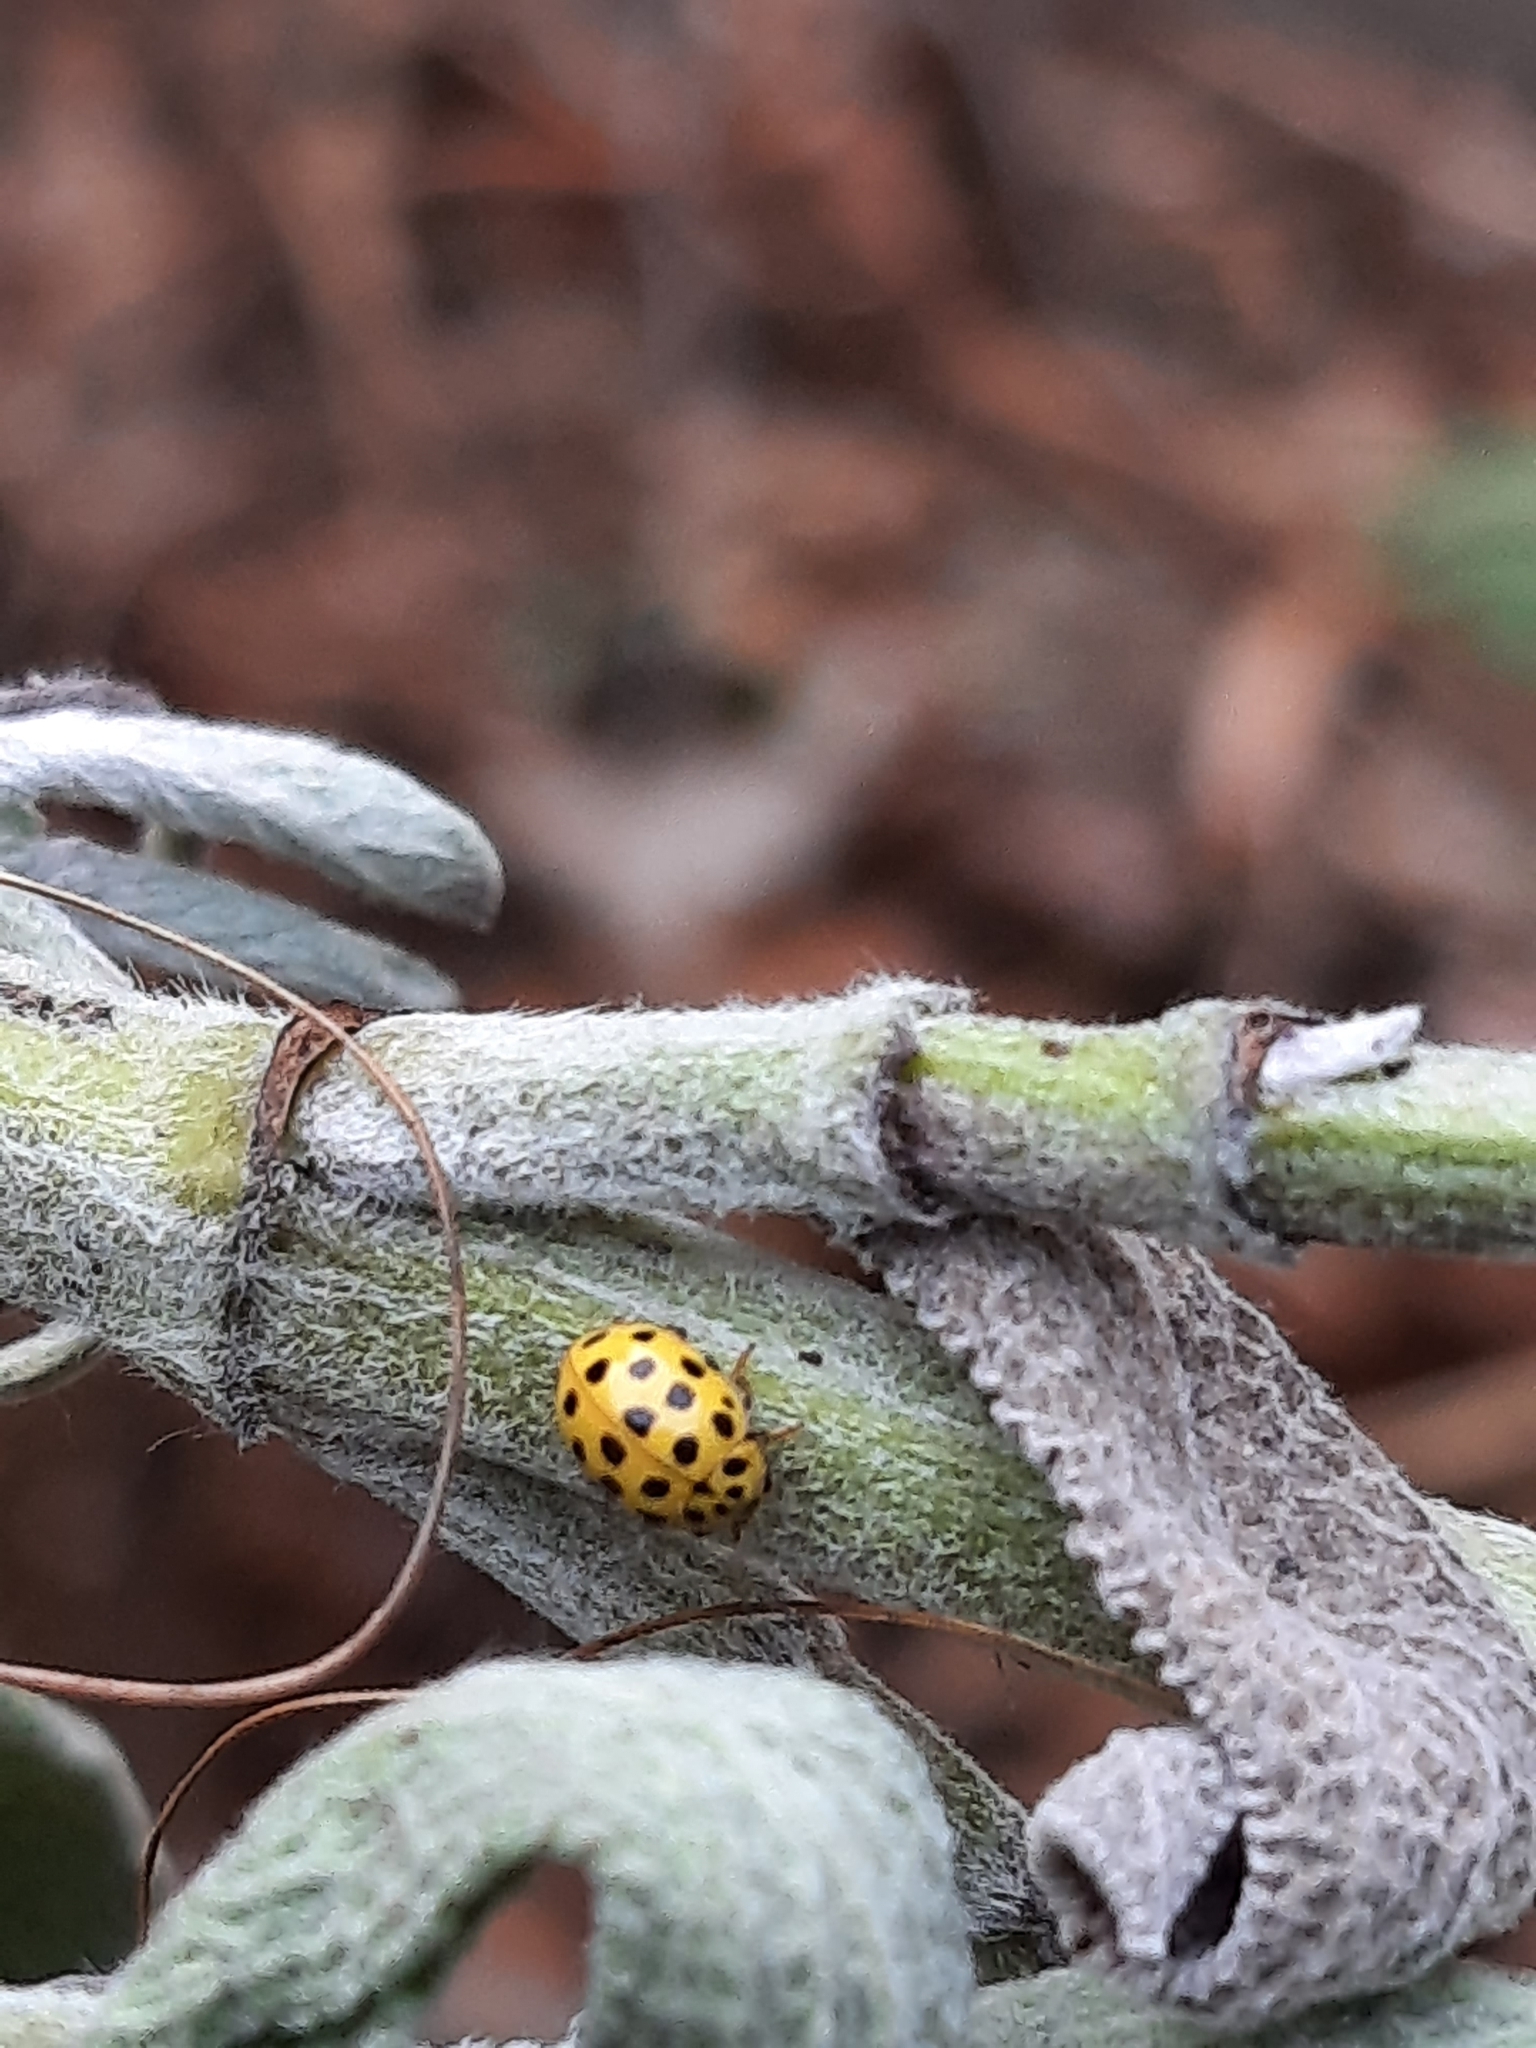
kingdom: Animalia
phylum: Arthropoda
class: Insecta
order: Coleoptera
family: Coccinellidae
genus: Psyllobora
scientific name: Psyllobora vigintiduopunctata
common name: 22-spot ladybird
